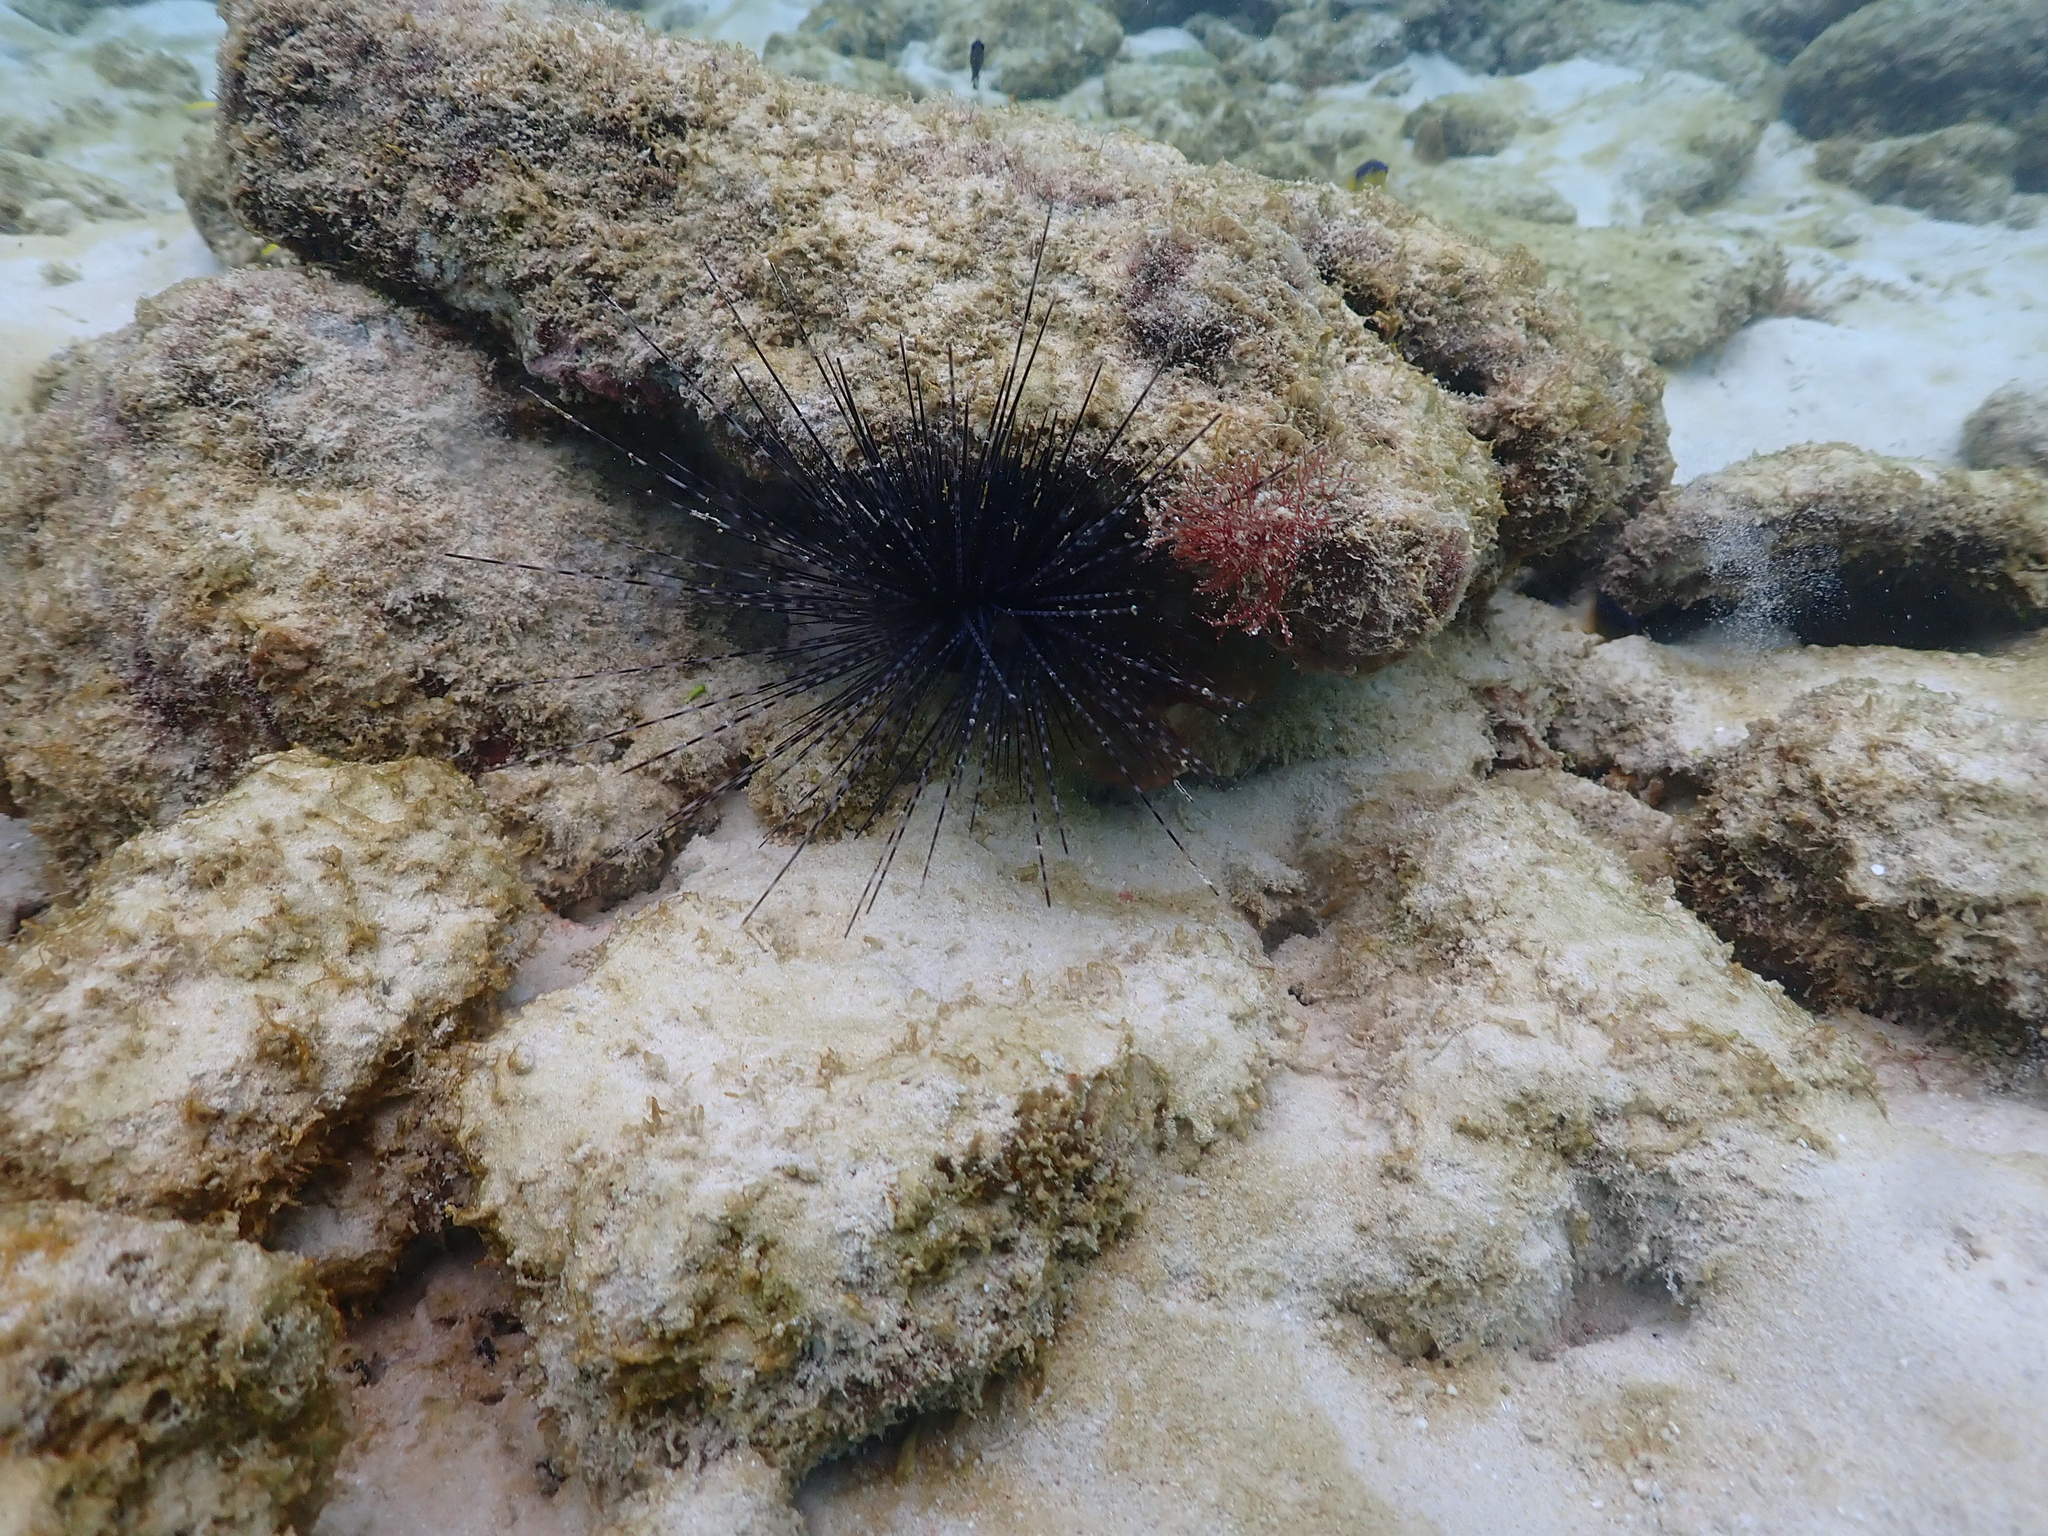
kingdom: Animalia
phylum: Echinodermata
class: Echinoidea
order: Diadematoida
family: Diadematidae
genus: Diadema
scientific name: Diadema antillarum
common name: Spiny urchin
